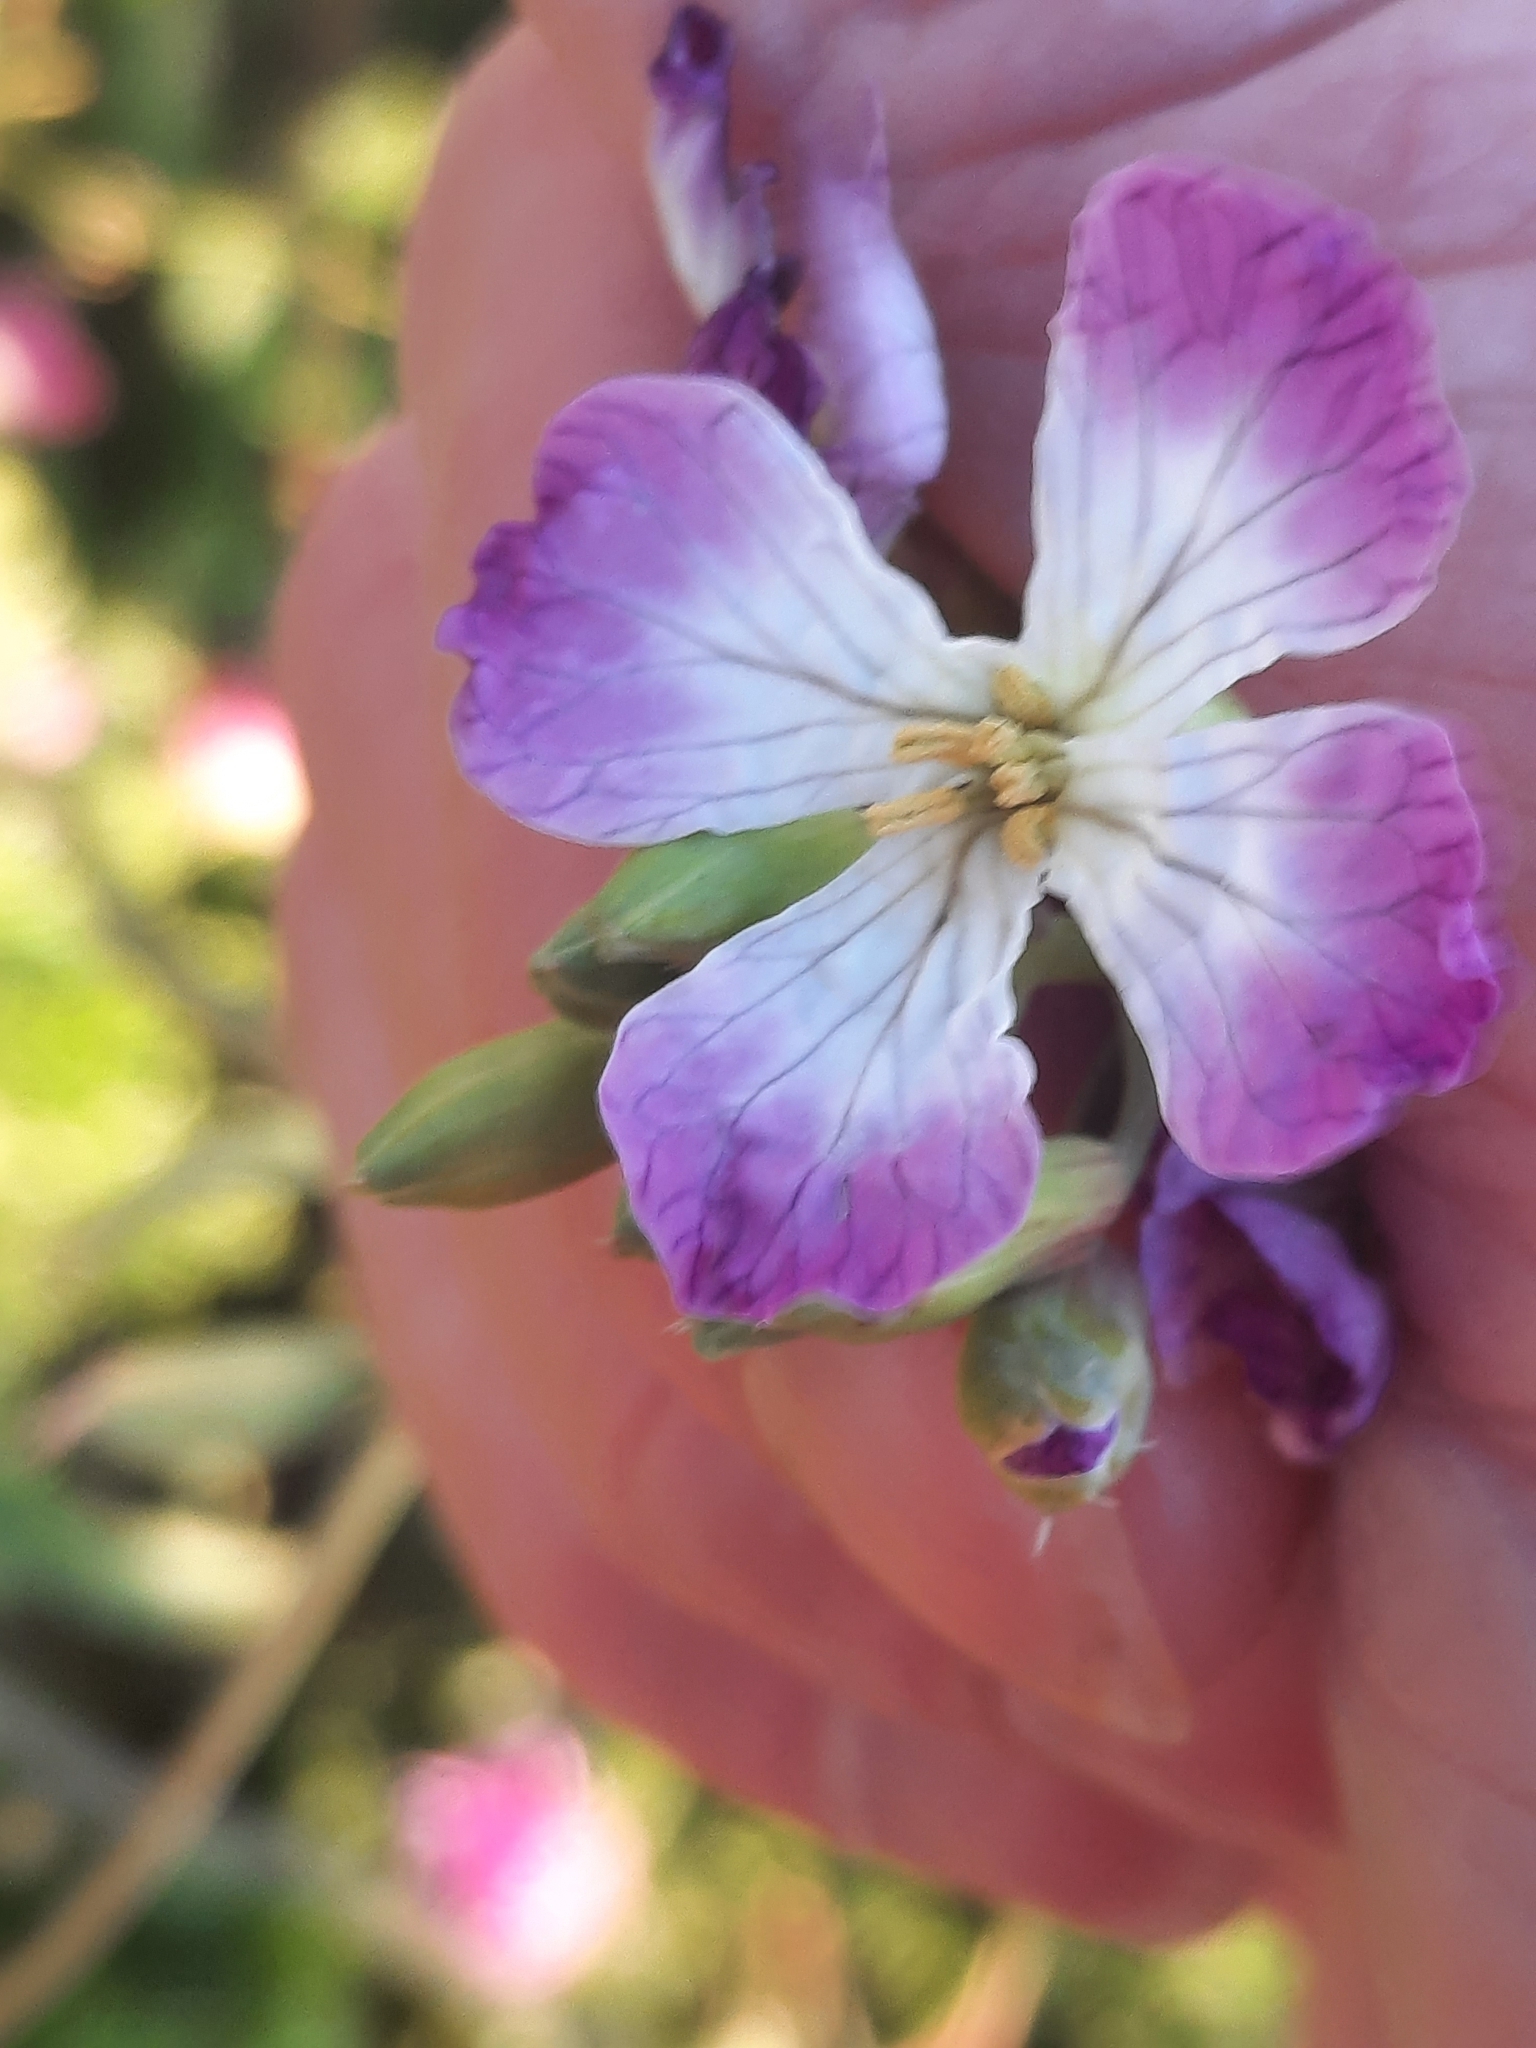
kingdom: Plantae
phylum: Tracheophyta
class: Magnoliopsida
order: Brassicales
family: Brassicaceae
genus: Raphanus
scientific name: Raphanus sativus
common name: Cultivated radish
